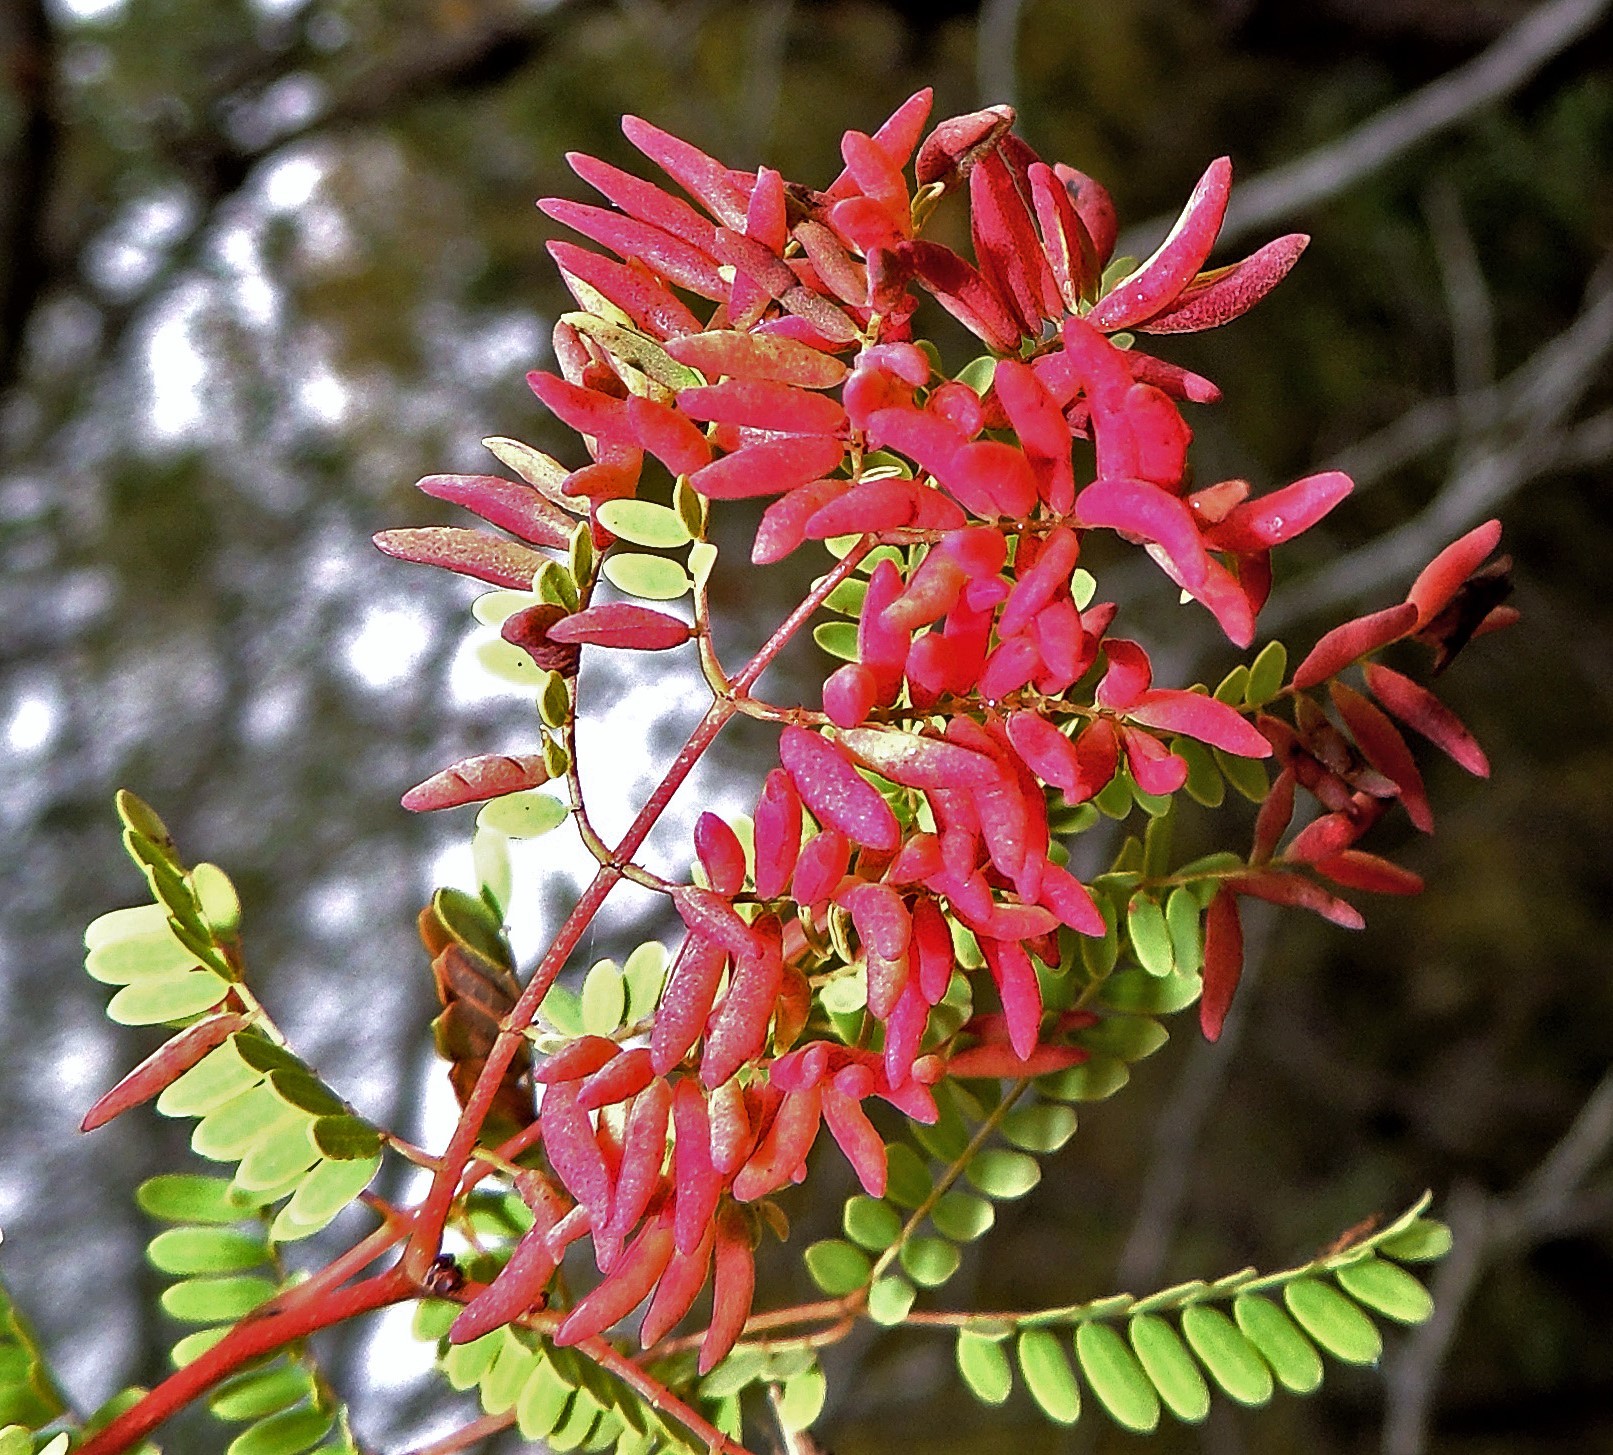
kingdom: Plantae
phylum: Tracheophyta
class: Magnoliopsida
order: Fabales
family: Fabaceae
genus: Libidibia
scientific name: Libidibia paraguariensis
